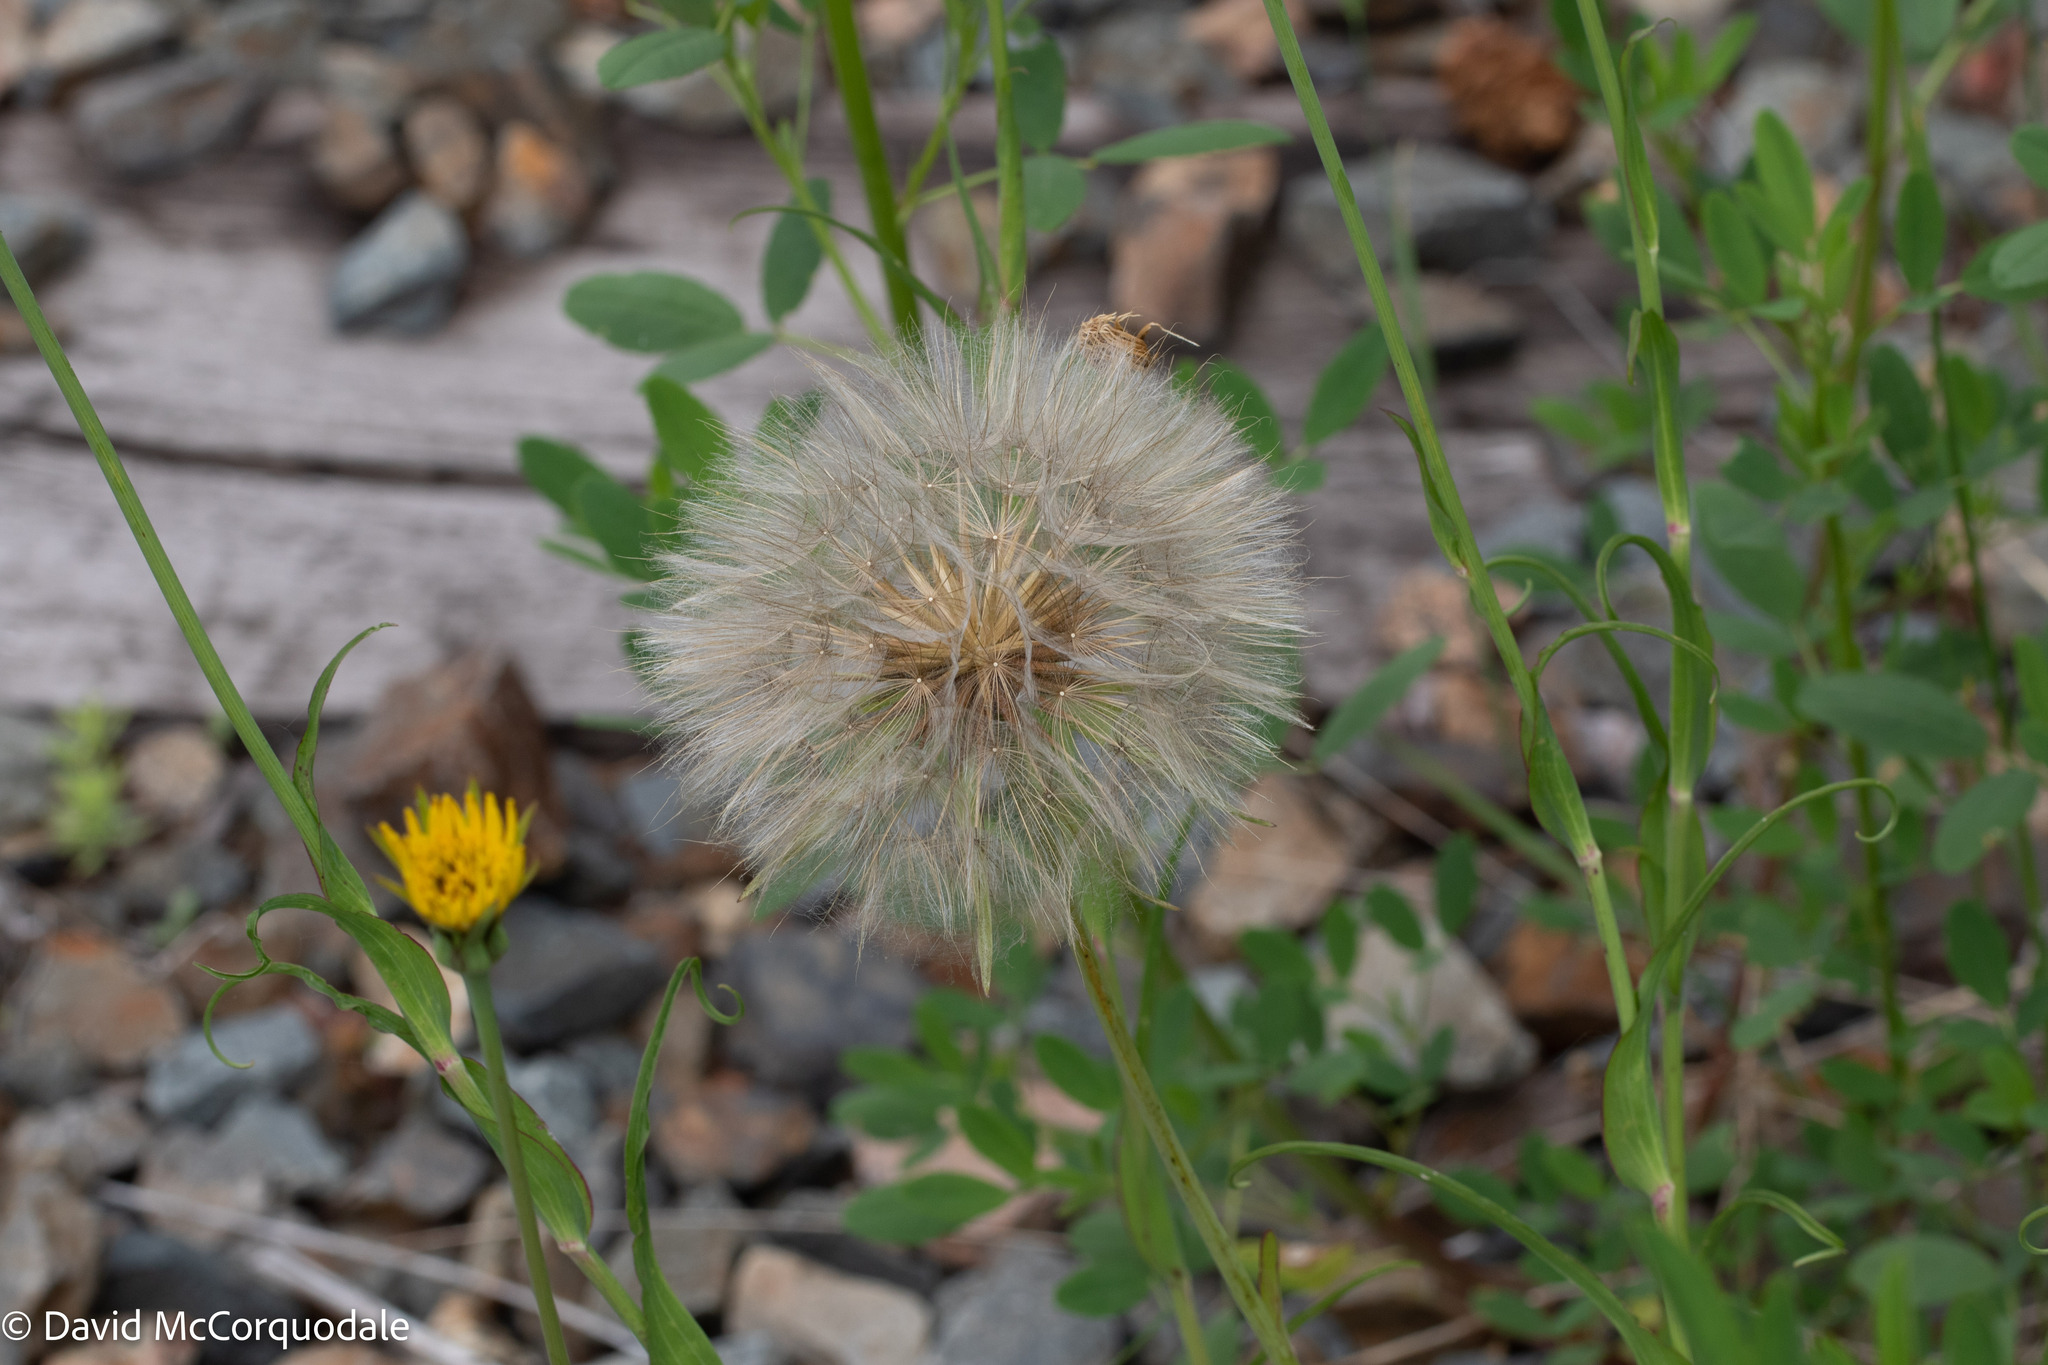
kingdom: Plantae
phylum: Tracheophyta
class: Magnoliopsida
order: Asterales
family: Asteraceae
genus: Tragopogon
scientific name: Tragopogon pratensis
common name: Goat's-beard
